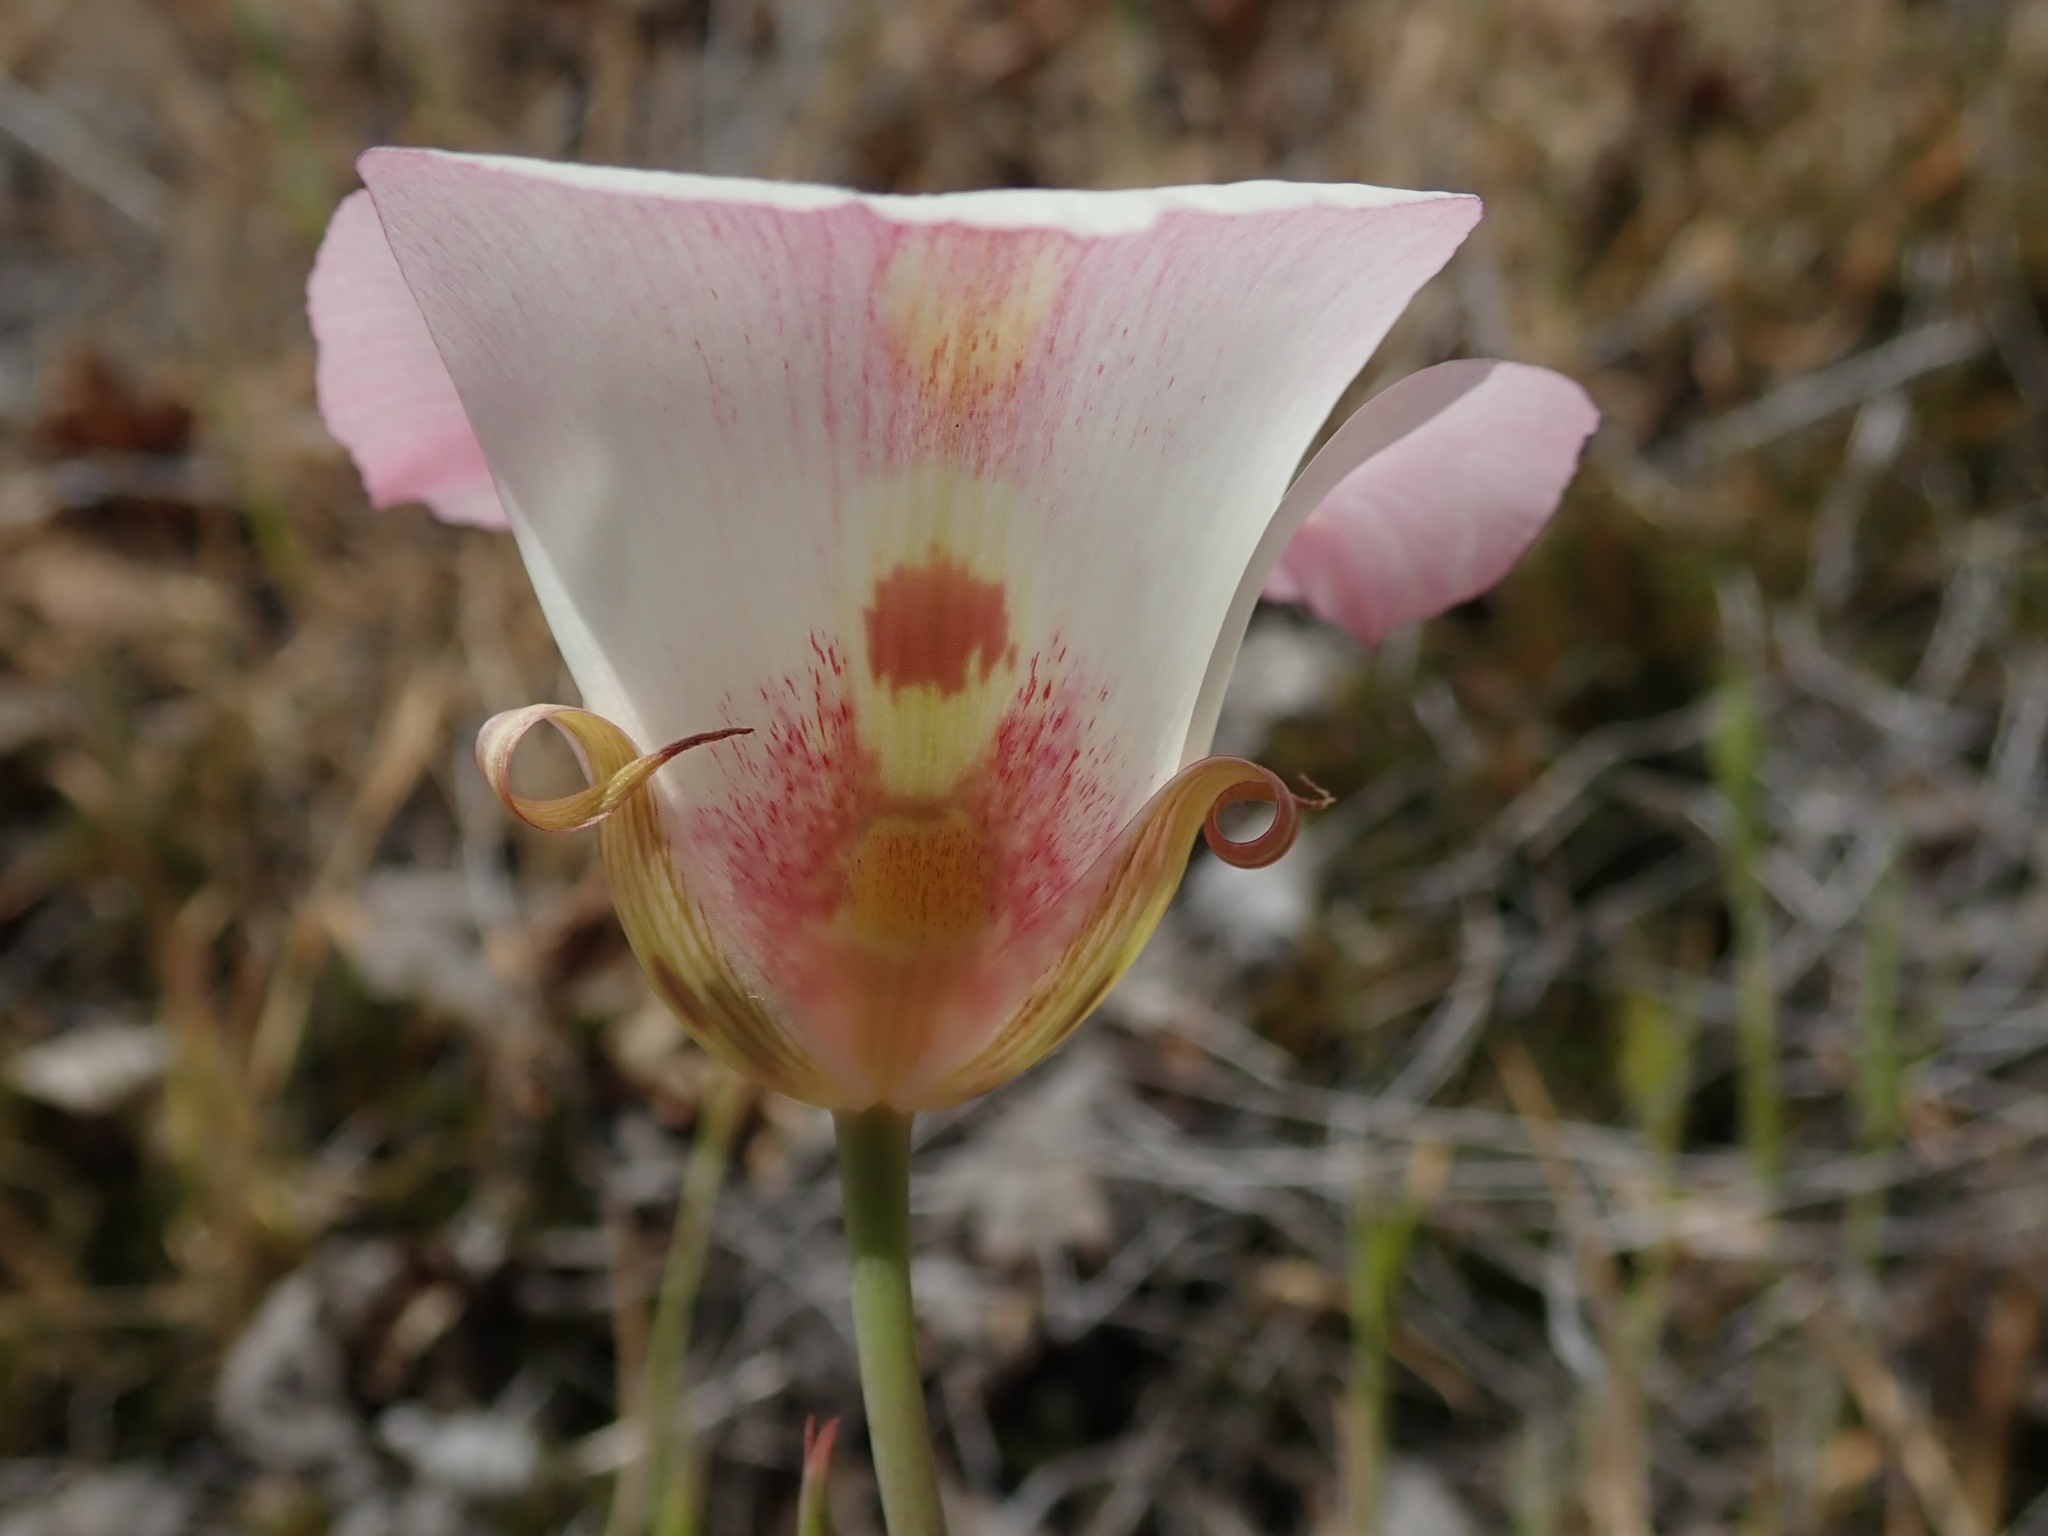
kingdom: Plantae
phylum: Tracheophyta
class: Liliopsida
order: Liliales
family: Liliaceae
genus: Calochortus
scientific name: Calochortus venustus
